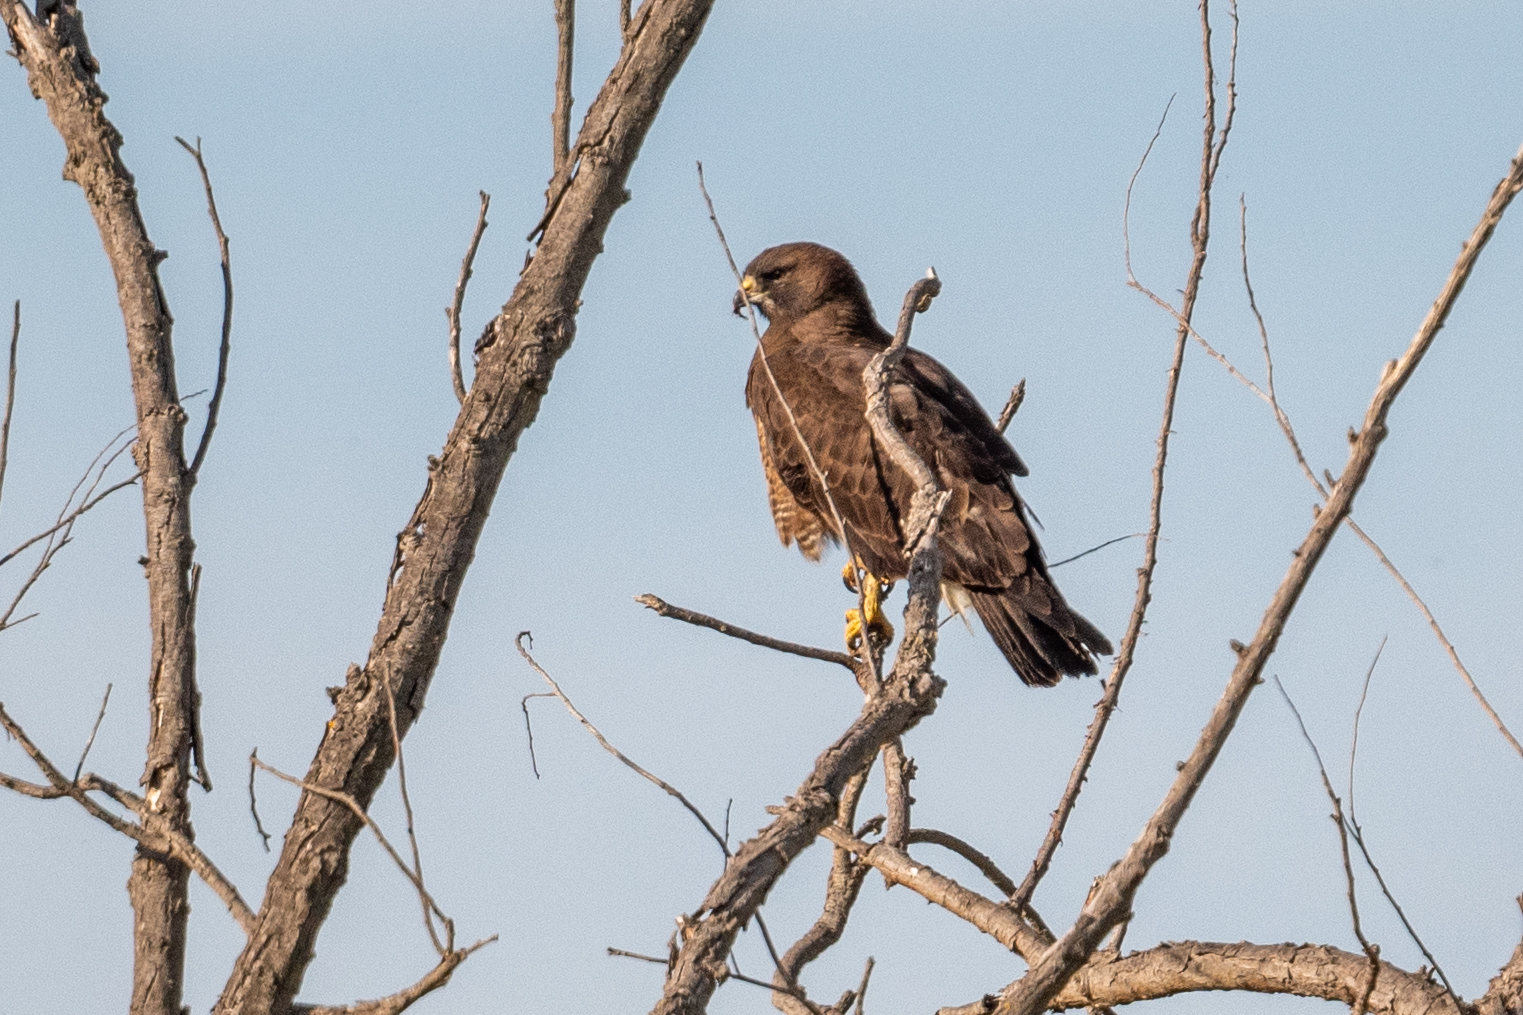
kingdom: Animalia
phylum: Chordata
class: Aves
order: Accipitriformes
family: Accipitridae
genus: Buteo
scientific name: Buteo swainsoni
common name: Swainson's hawk
